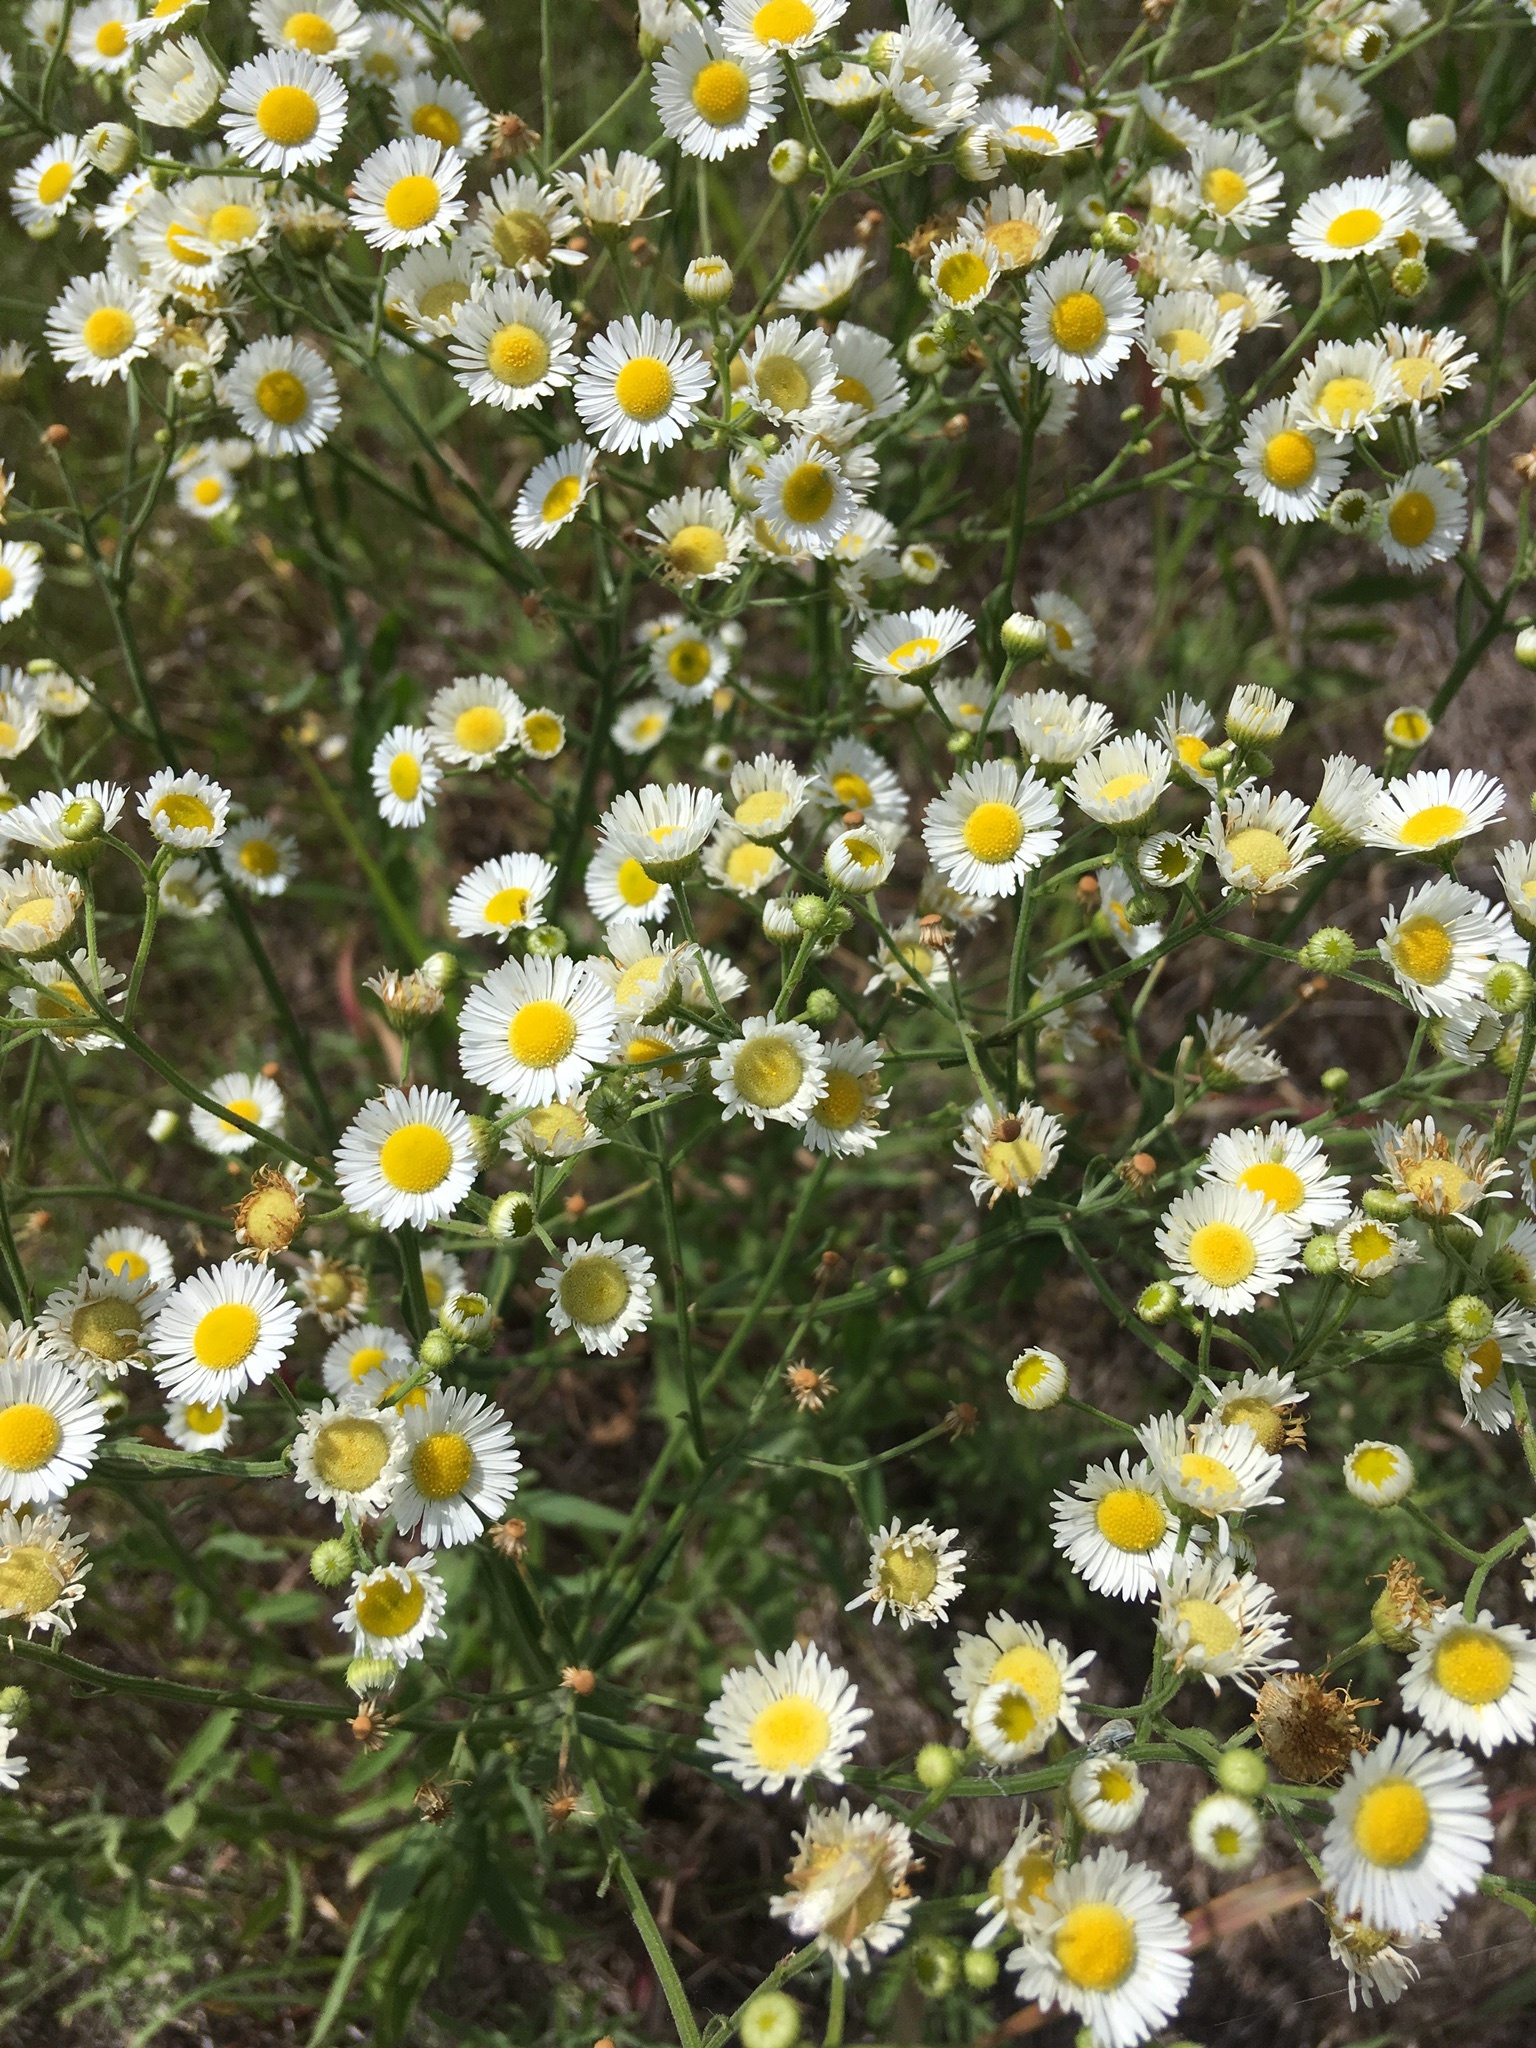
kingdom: Plantae
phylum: Tracheophyta
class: Magnoliopsida
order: Asterales
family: Asteraceae
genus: Erigeron
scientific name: Erigeron strigosus
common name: Common eastern fleabane
